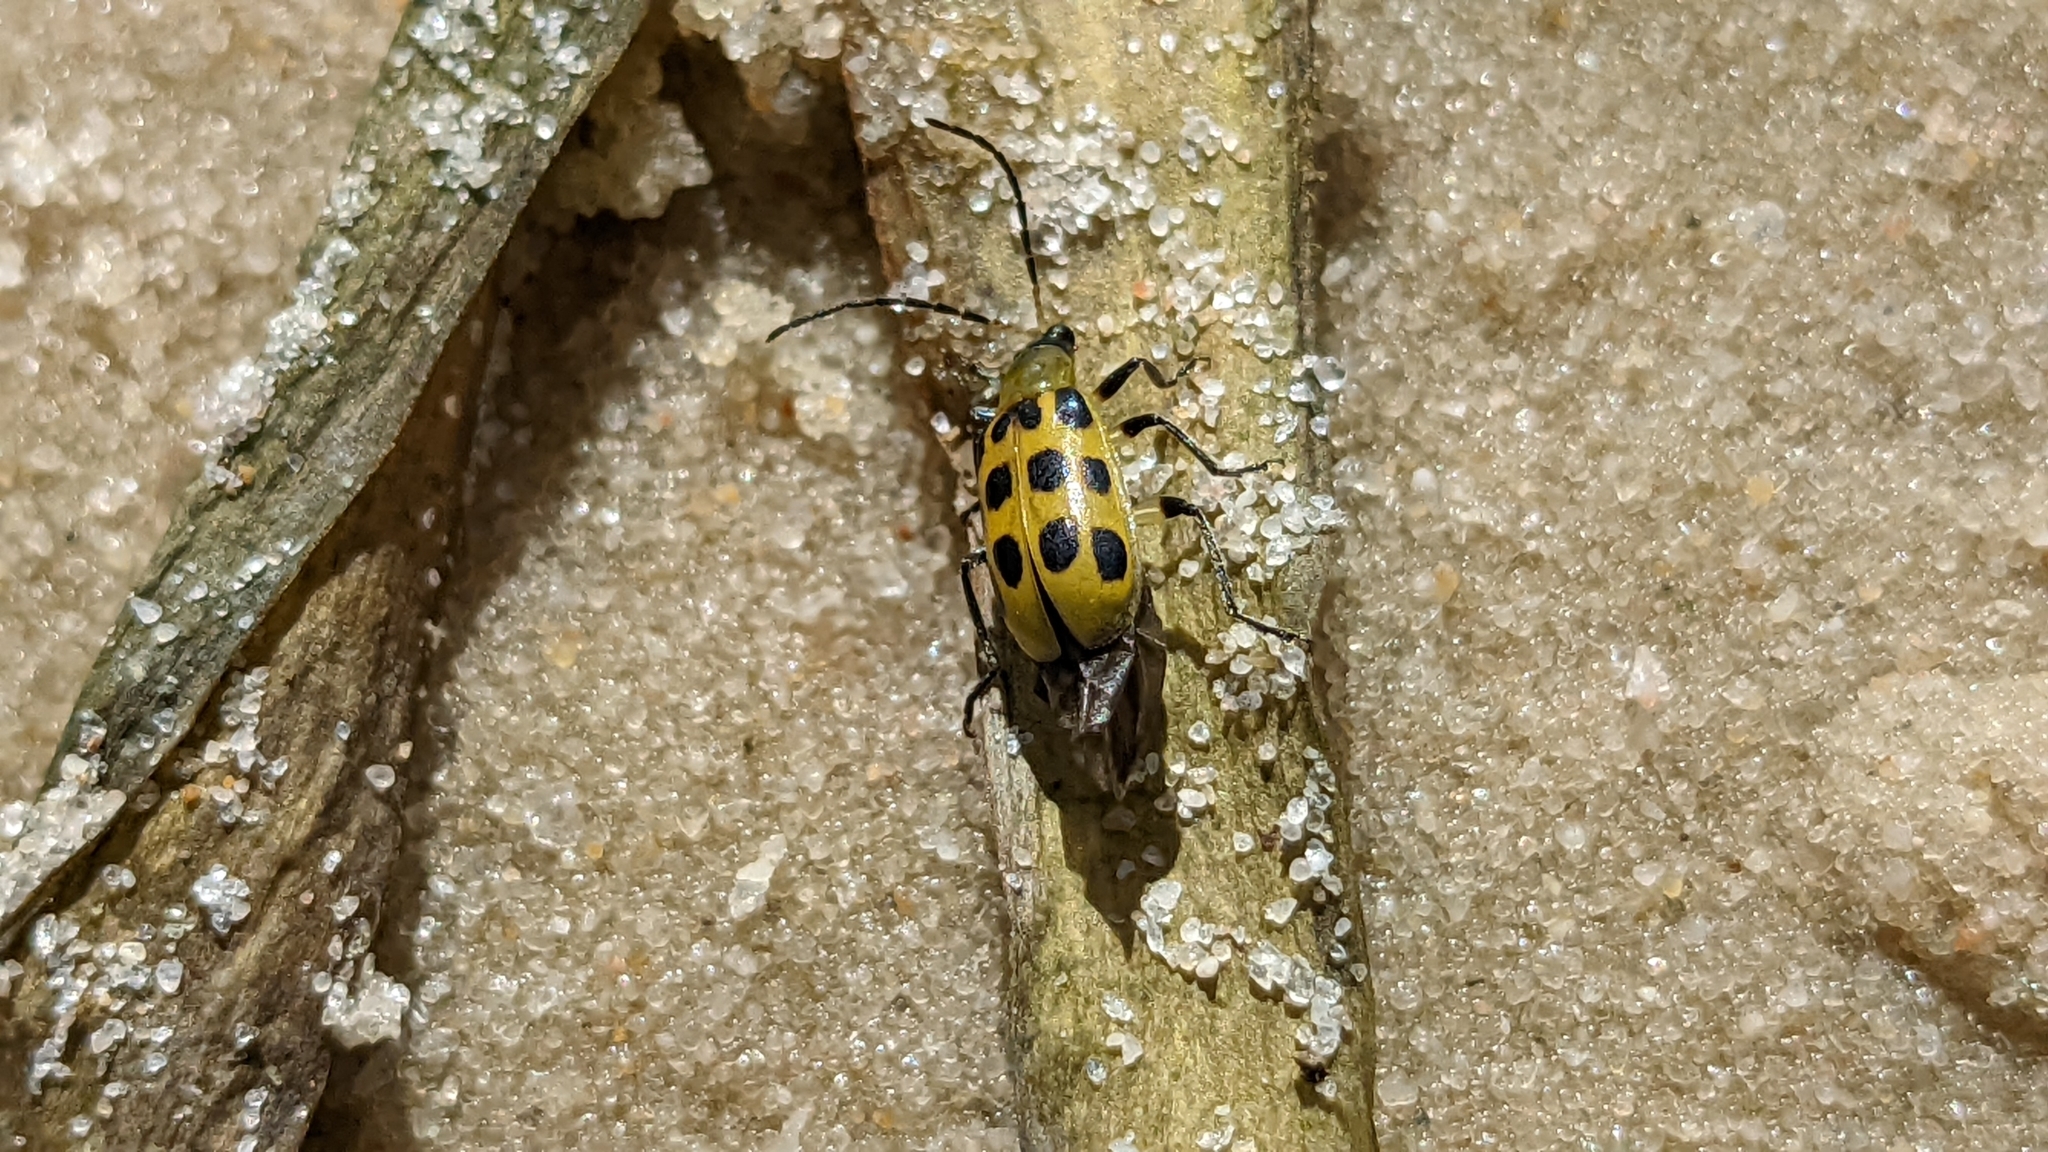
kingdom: Animalia
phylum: Arthropoda
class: Insecta
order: Coleoptera
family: Chrysomelidae
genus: Diabrotica
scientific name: Diabrotica undecimpunctata
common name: Spotted cucumber beetle
